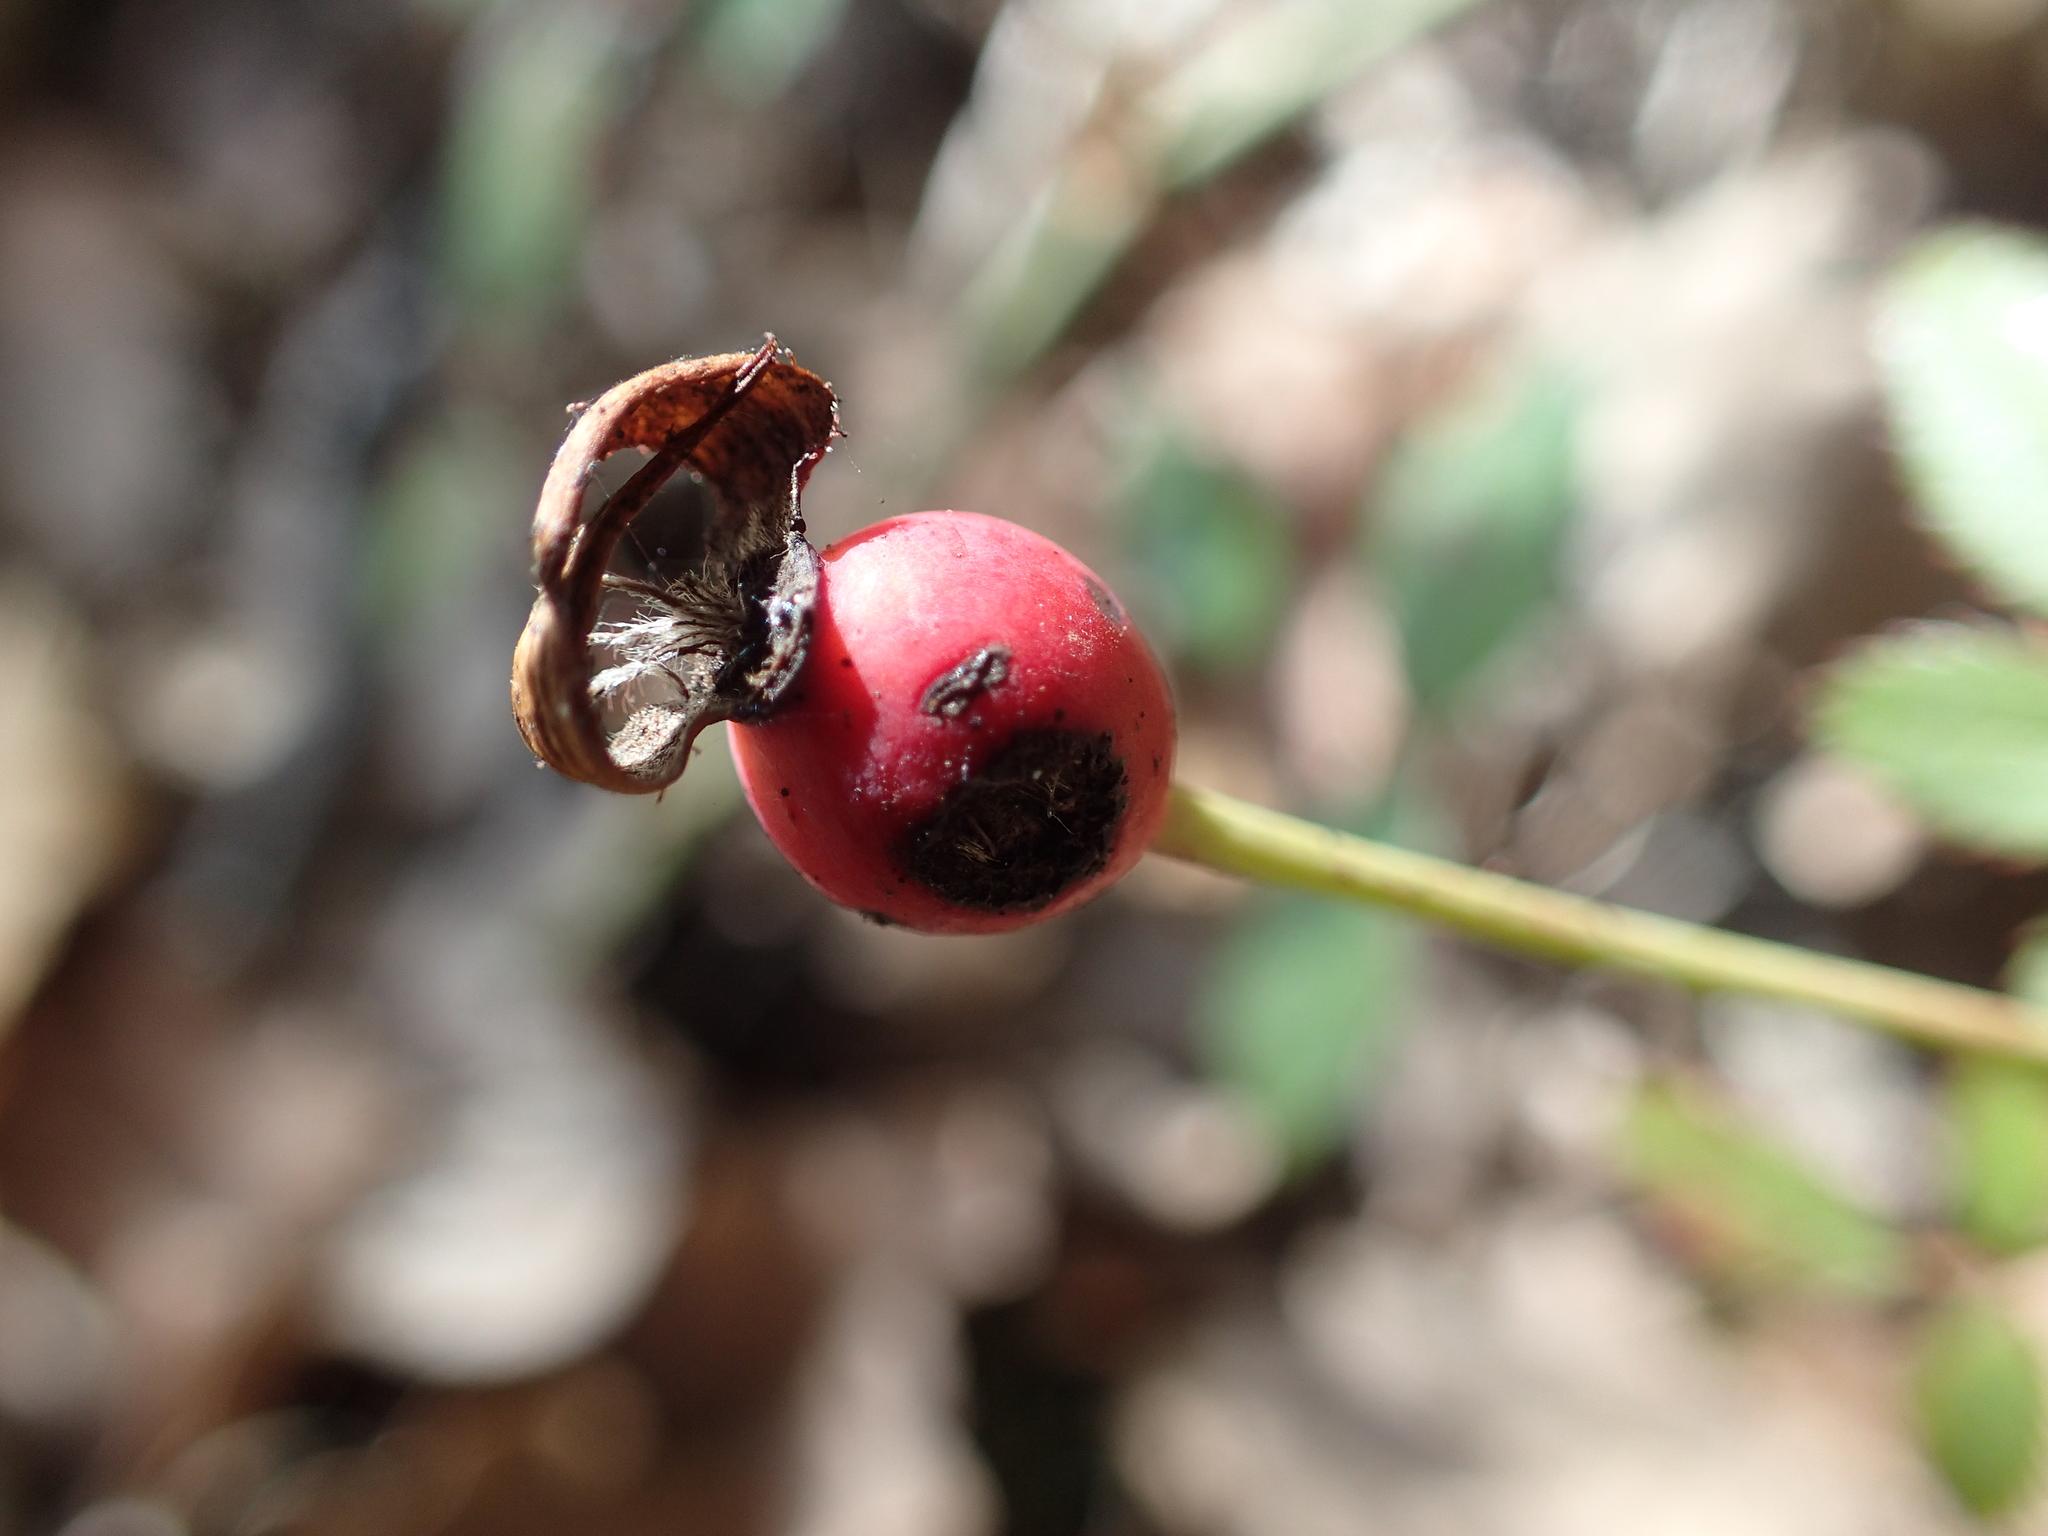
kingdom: Plantae
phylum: Tracheophyta
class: Magnoliopsida
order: Rosales
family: Rosaceae
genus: Rosa
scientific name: Rosa sempervirens
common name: Evergreen rose
